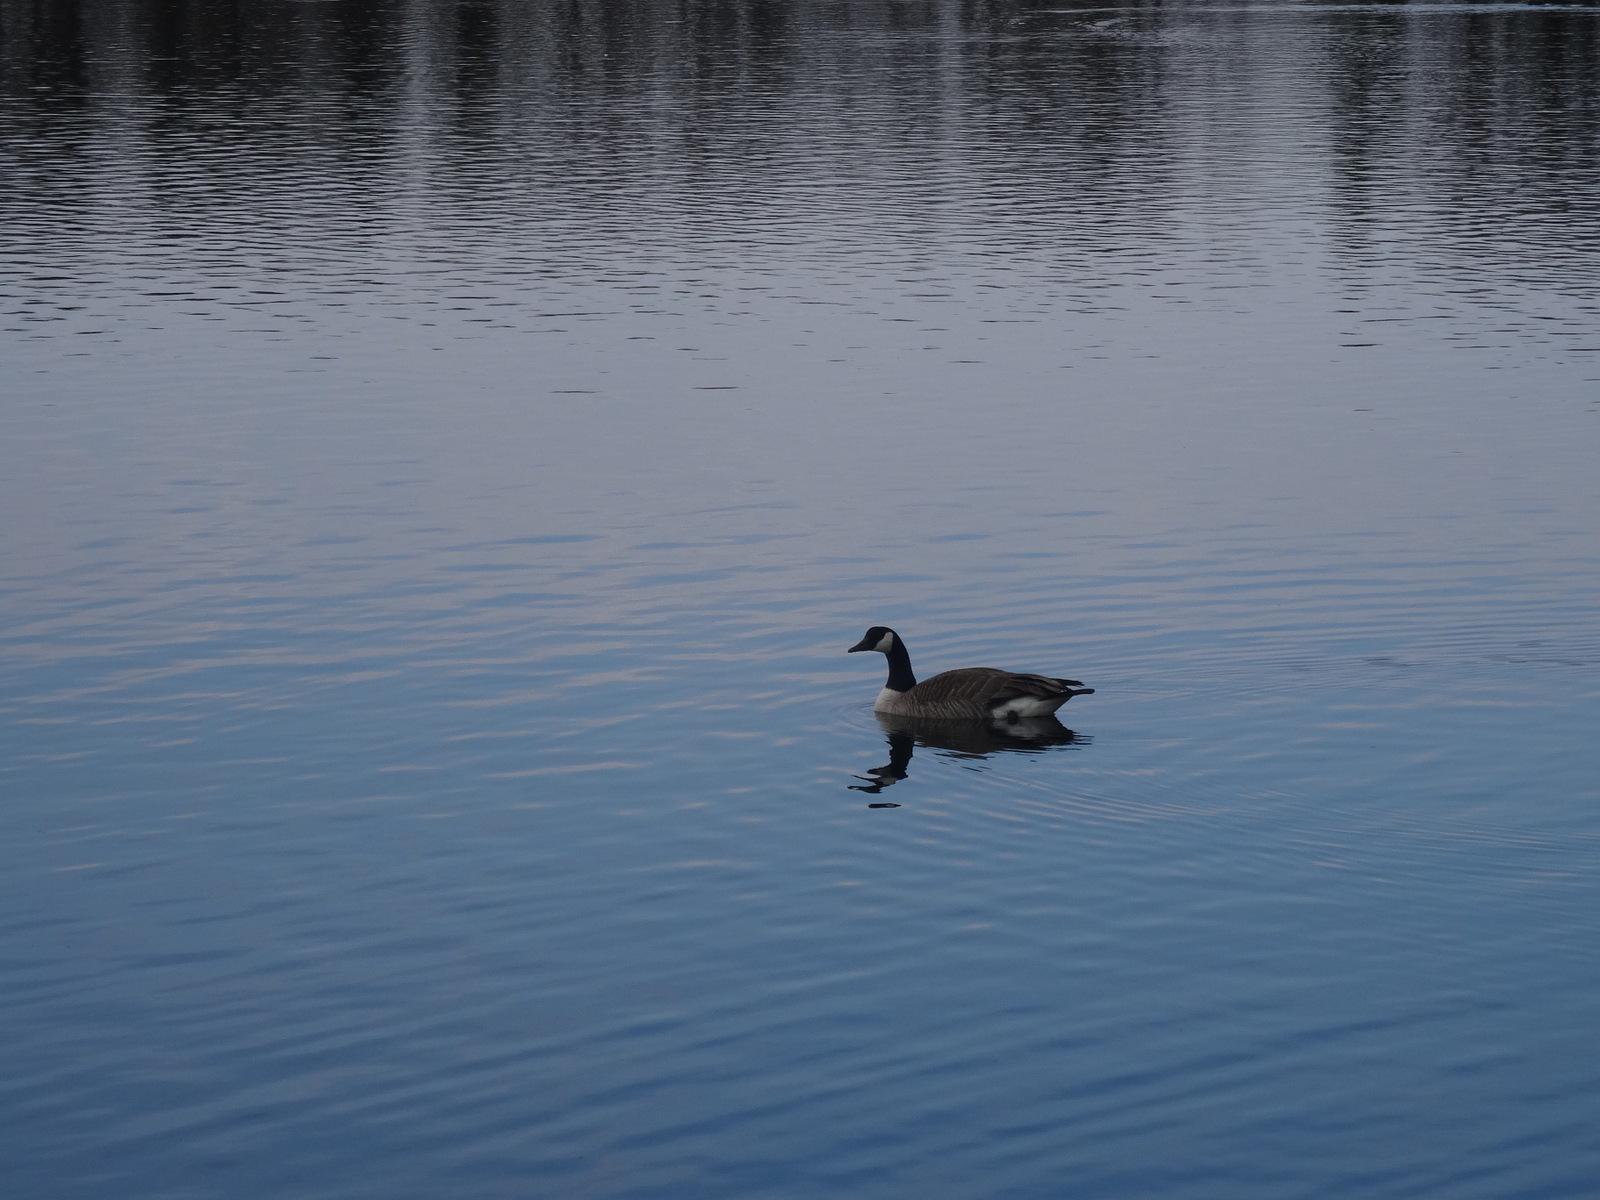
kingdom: Animalia
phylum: Chordata
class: Aves
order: Anseriformes
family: Anatidae
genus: Branta
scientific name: Branta canadensis
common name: Canada goose
